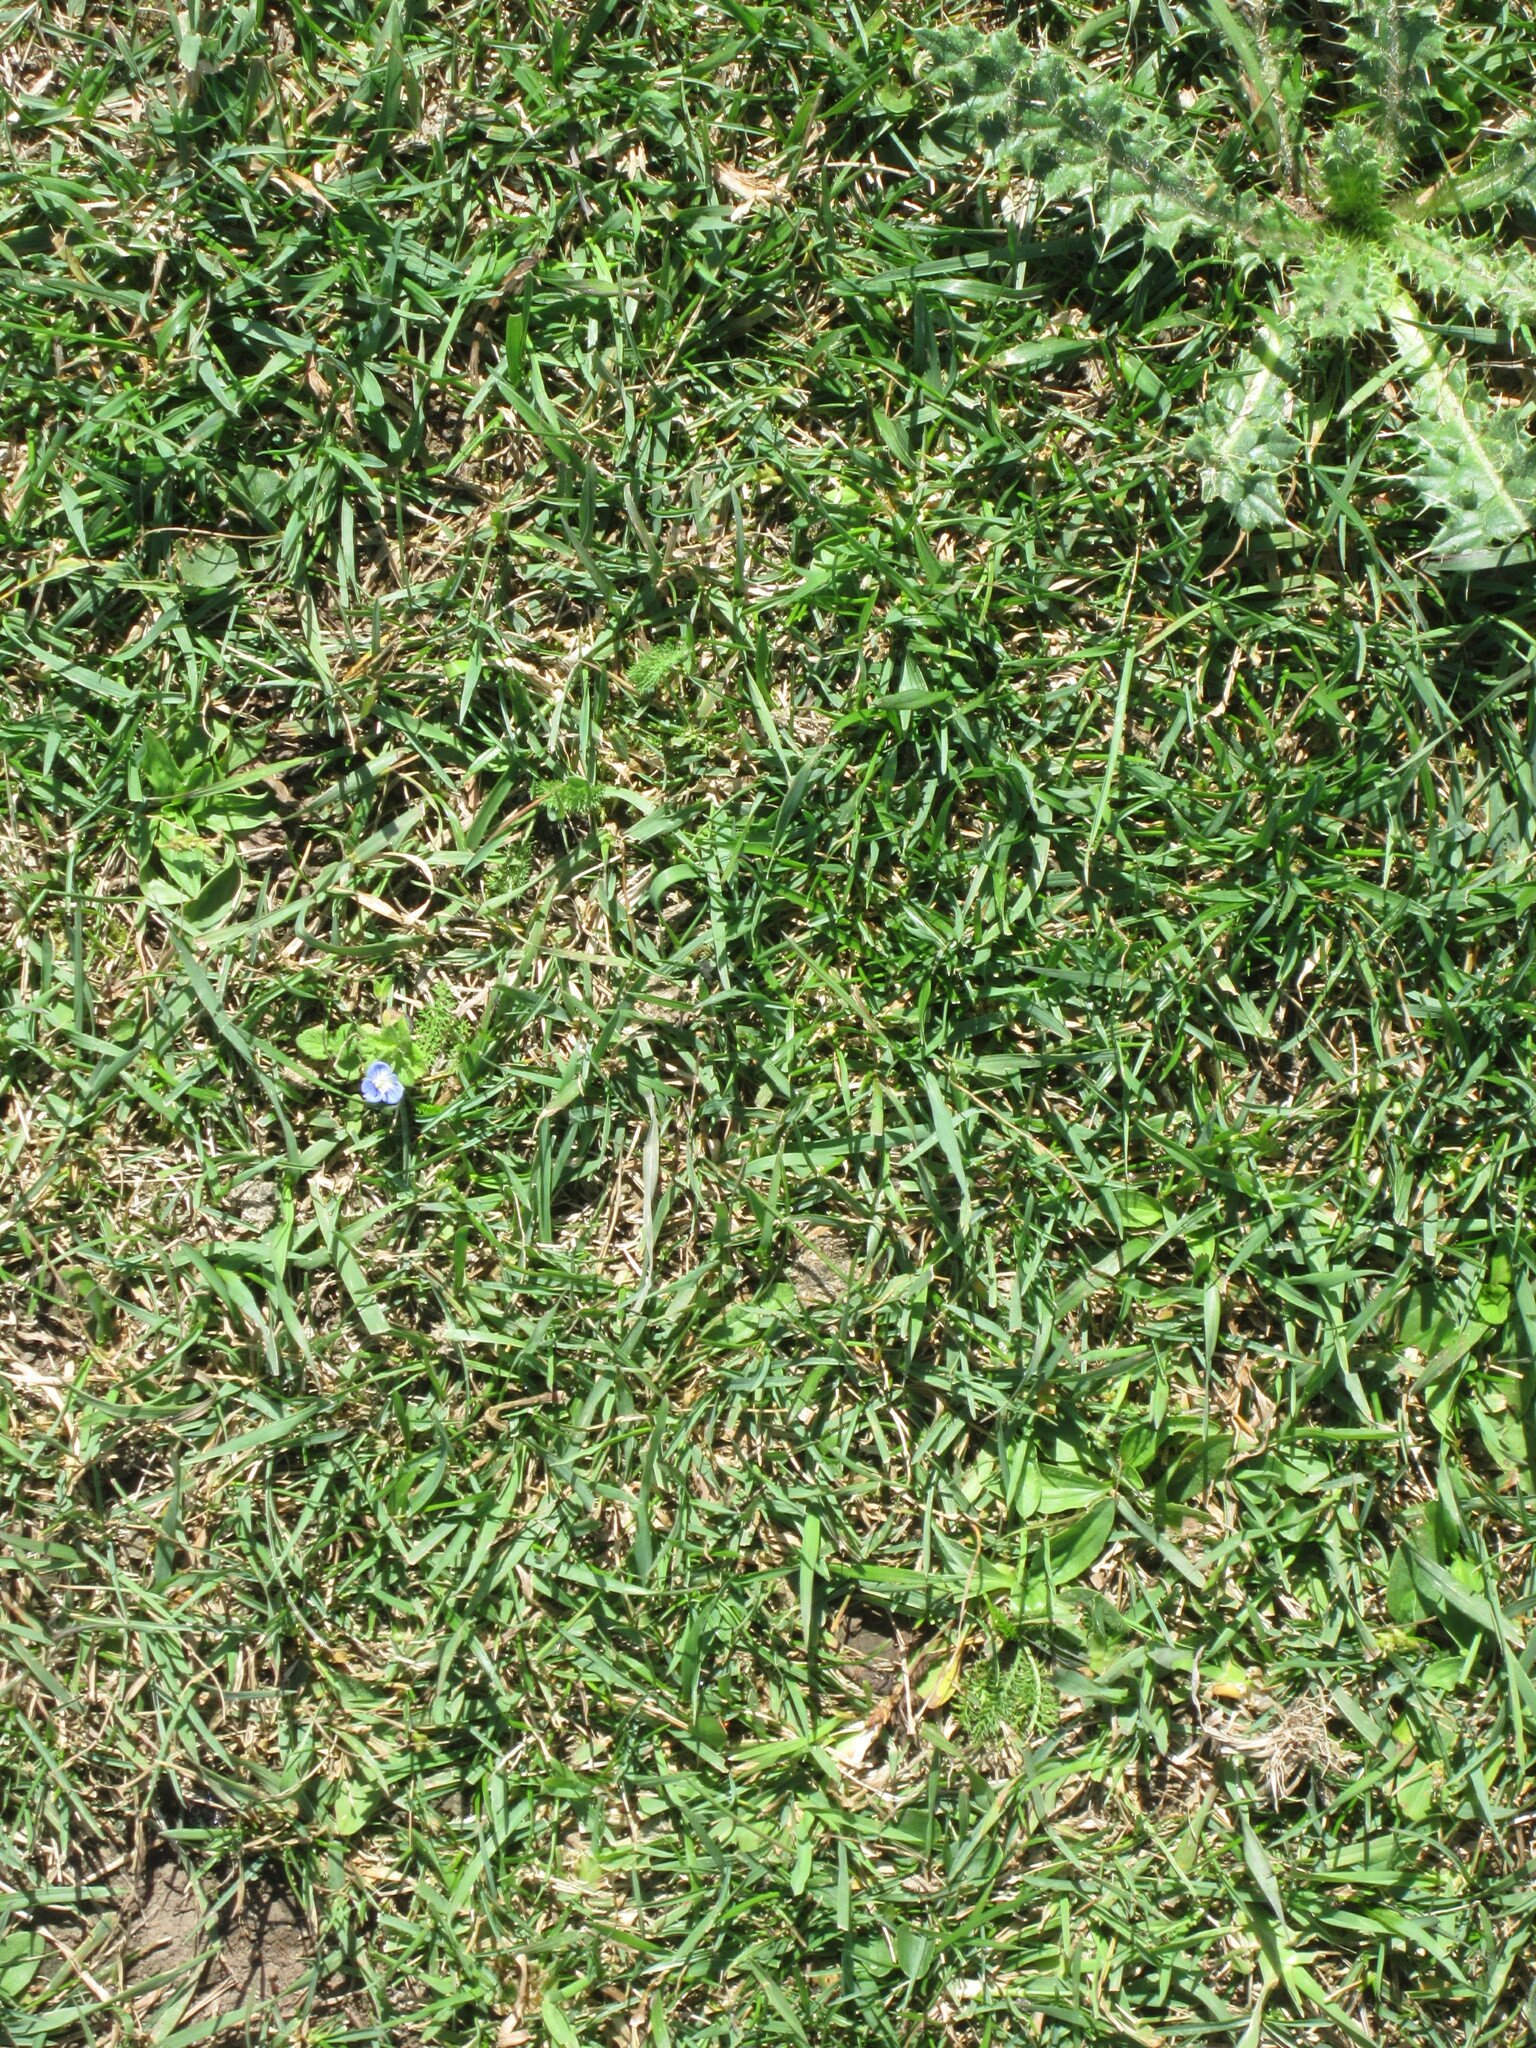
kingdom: Plantae
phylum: Tracheophyta
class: Magnoliopsida
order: Lamiales
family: Plantaginaceae
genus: Veronica
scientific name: Veronica persica
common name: Common field-speedwell
